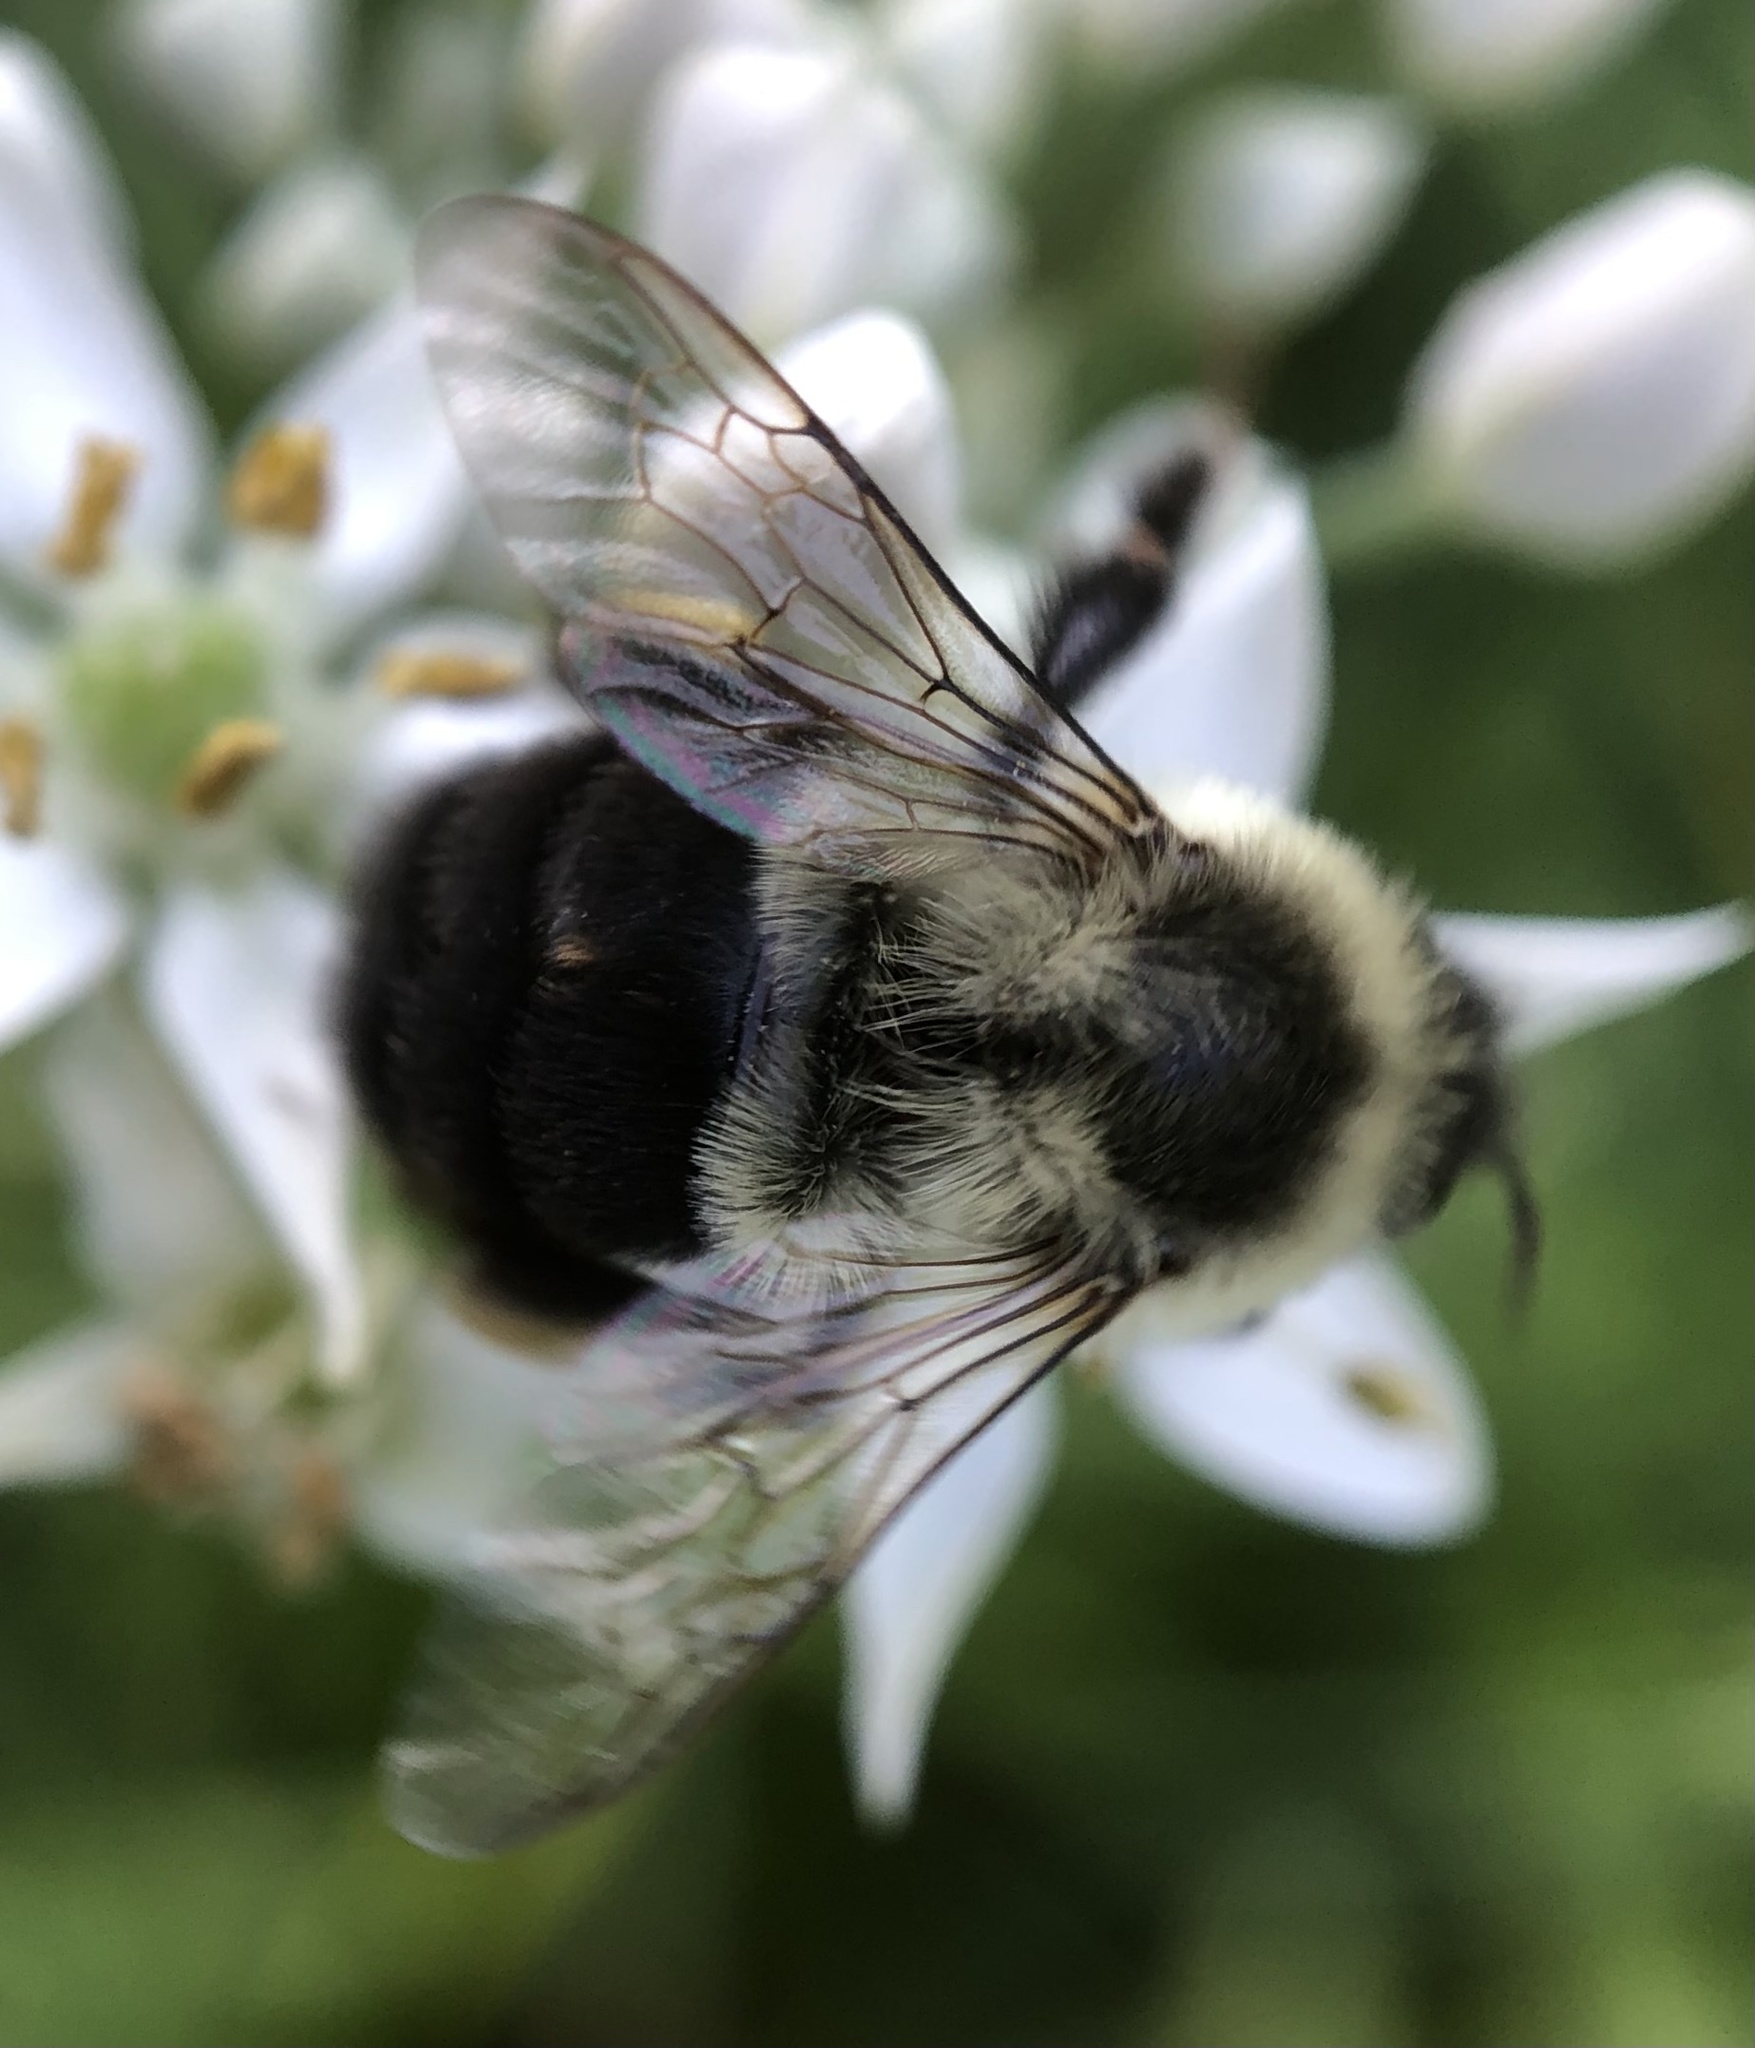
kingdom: Animalia
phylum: Arthropoda
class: Insecta
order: Hymenoptera
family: Apidae
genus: Bombus
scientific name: Bombus impatiens
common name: Common eastern bumble bee
